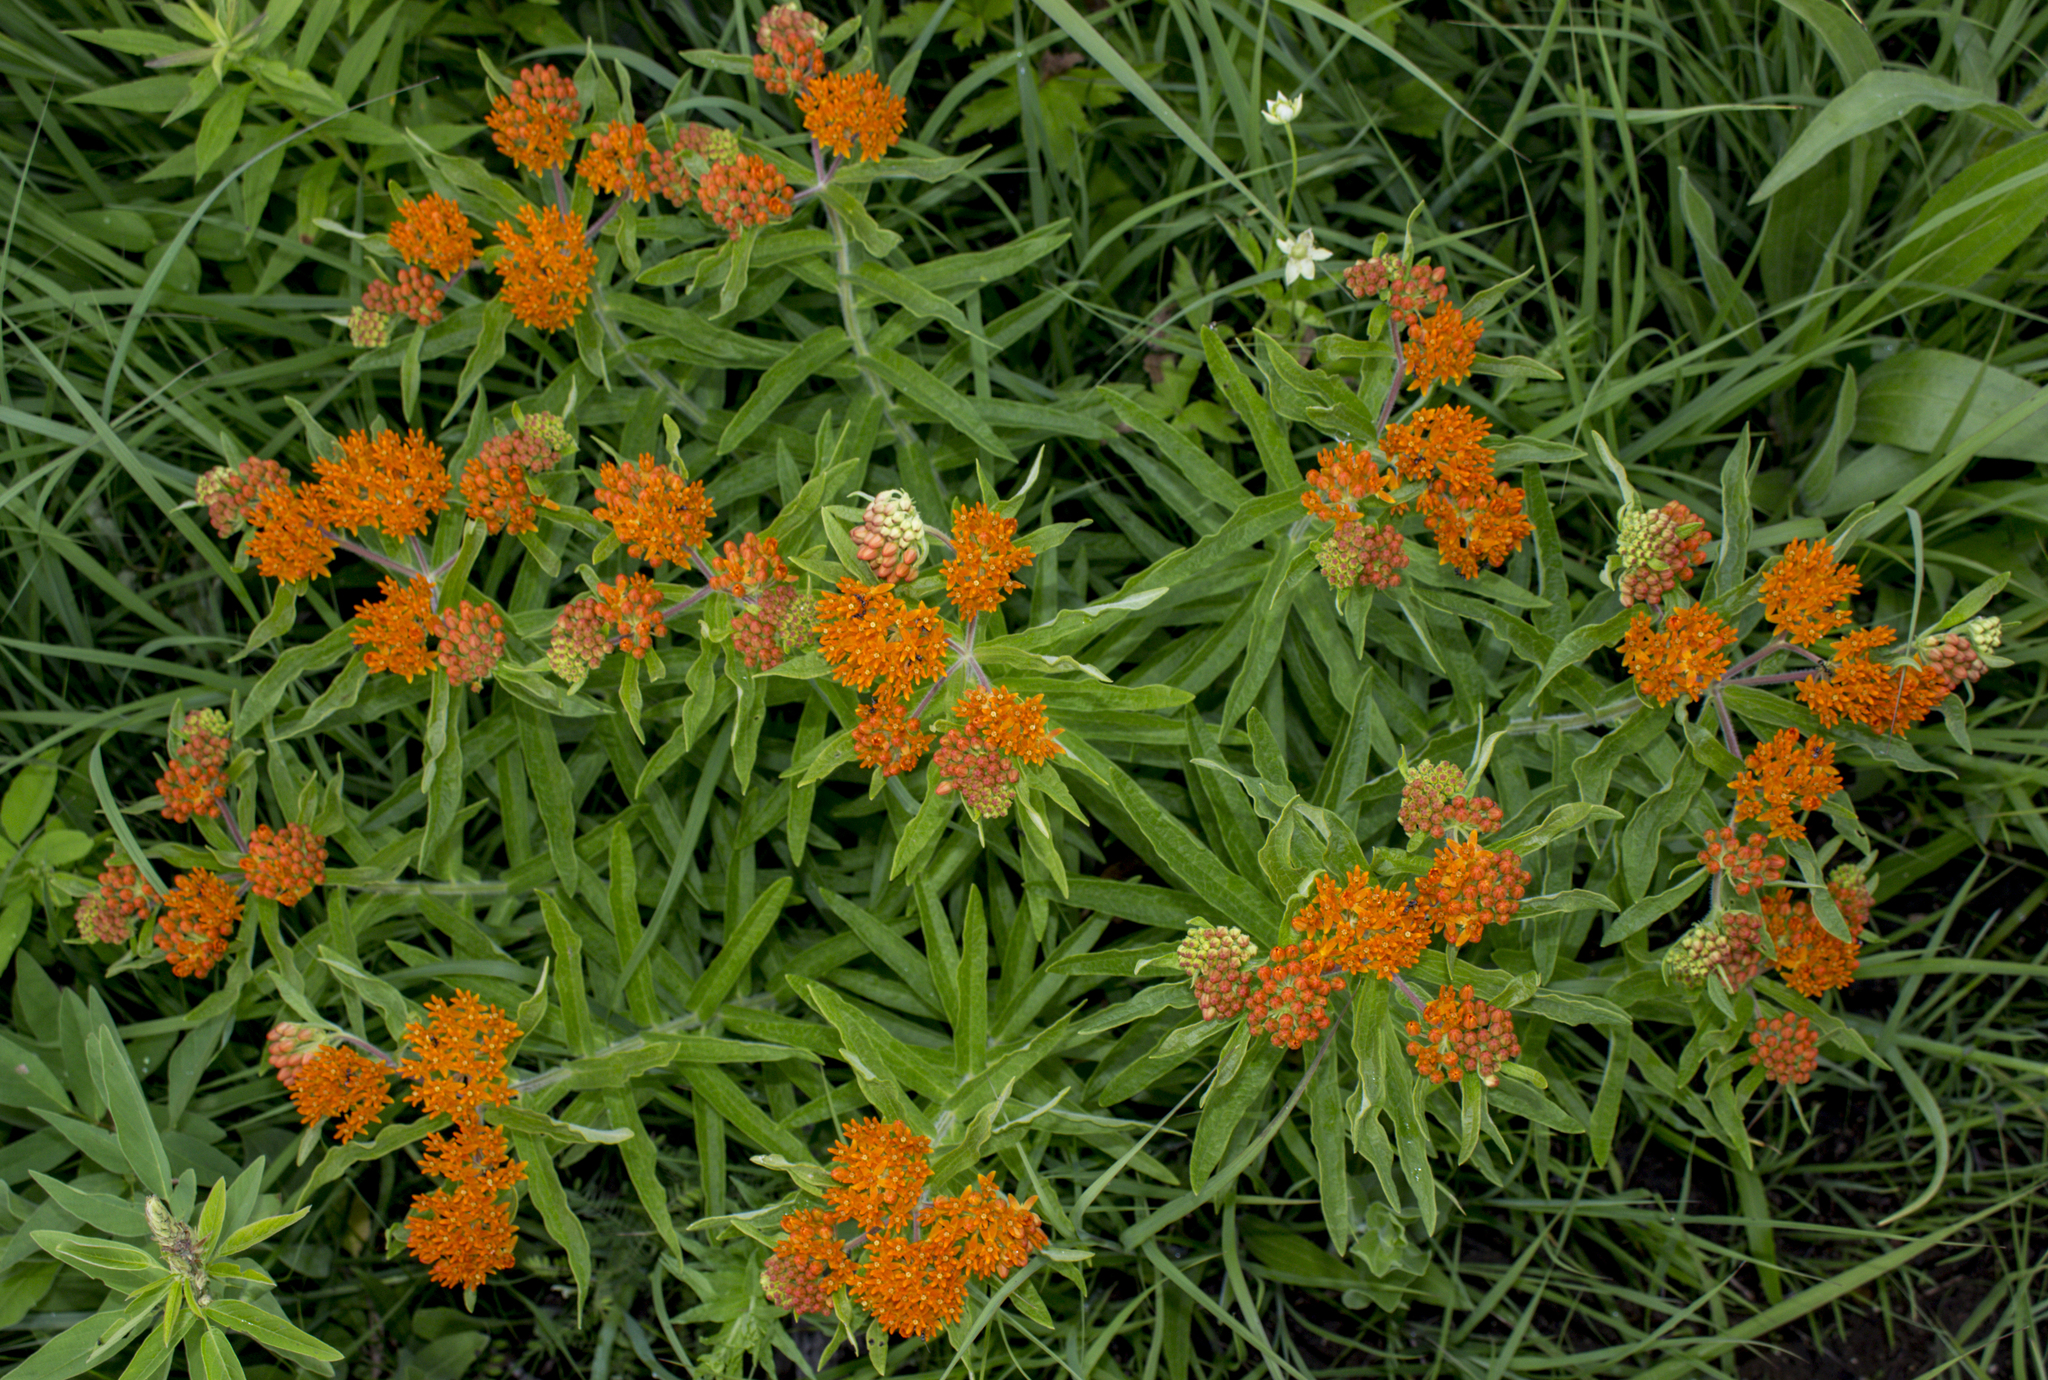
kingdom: Plantae
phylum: Tracheophyta
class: Magnoliopsida
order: Gentianales
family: Apocynaceae
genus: Asclepias
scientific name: Asclepias tuberosa
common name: Butterfly milkweed
